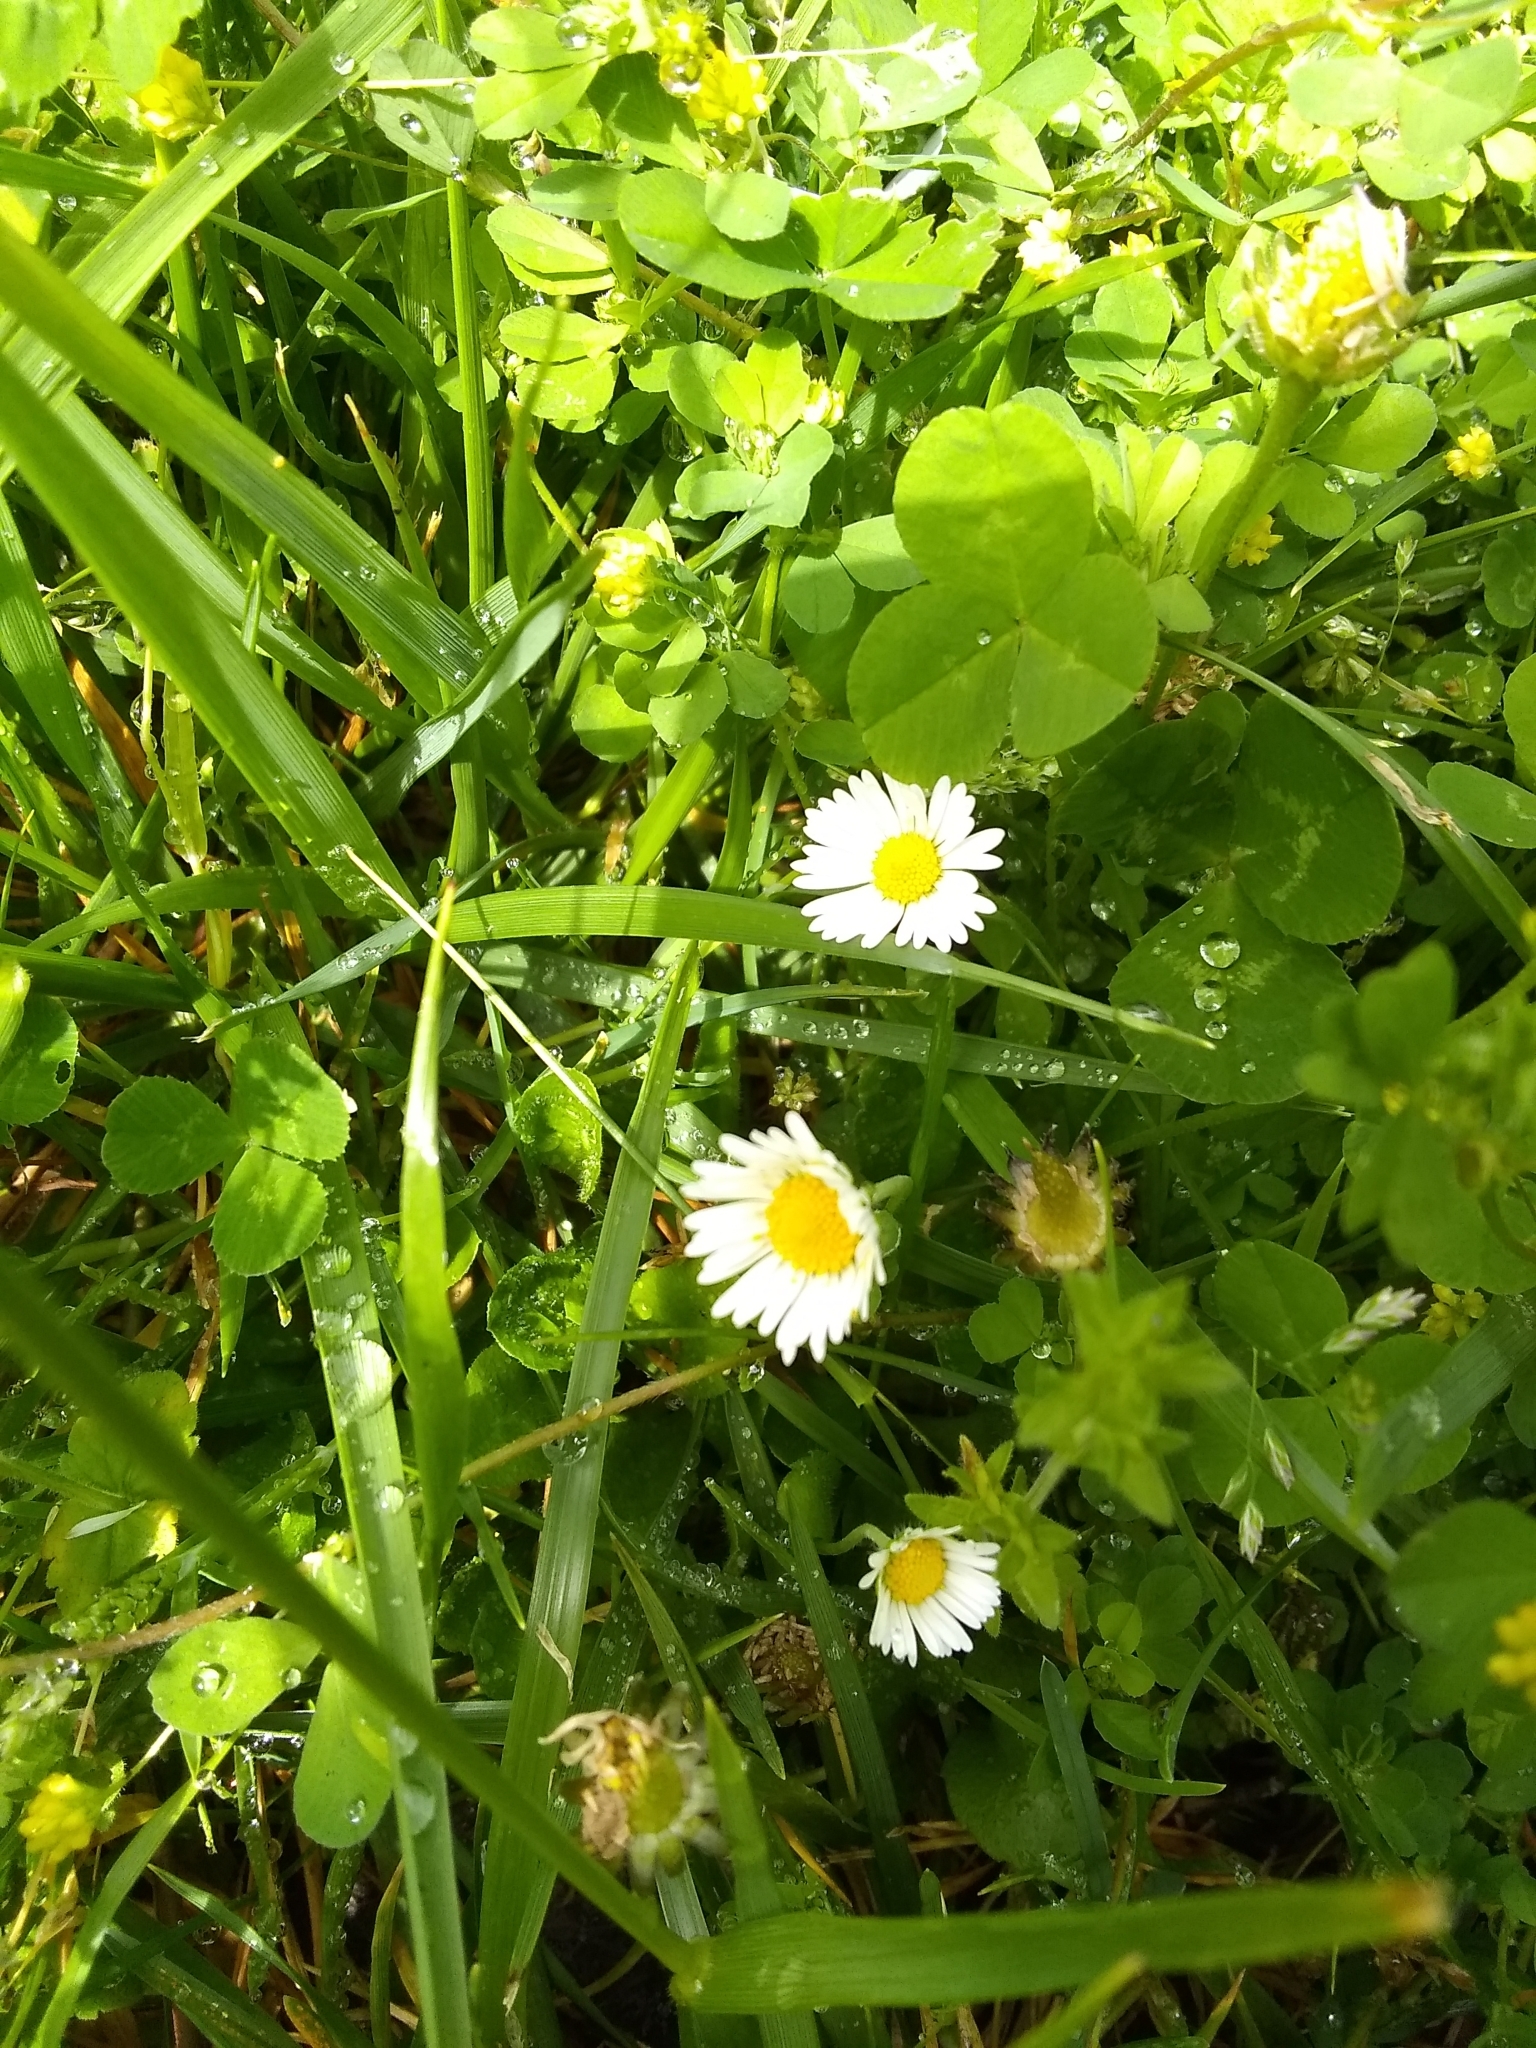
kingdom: Plantae
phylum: Tracheophyta
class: Magnoliopsida
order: Asterales
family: Asteraceae
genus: Bellis
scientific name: Bellis perennis
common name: Lawndaisy
